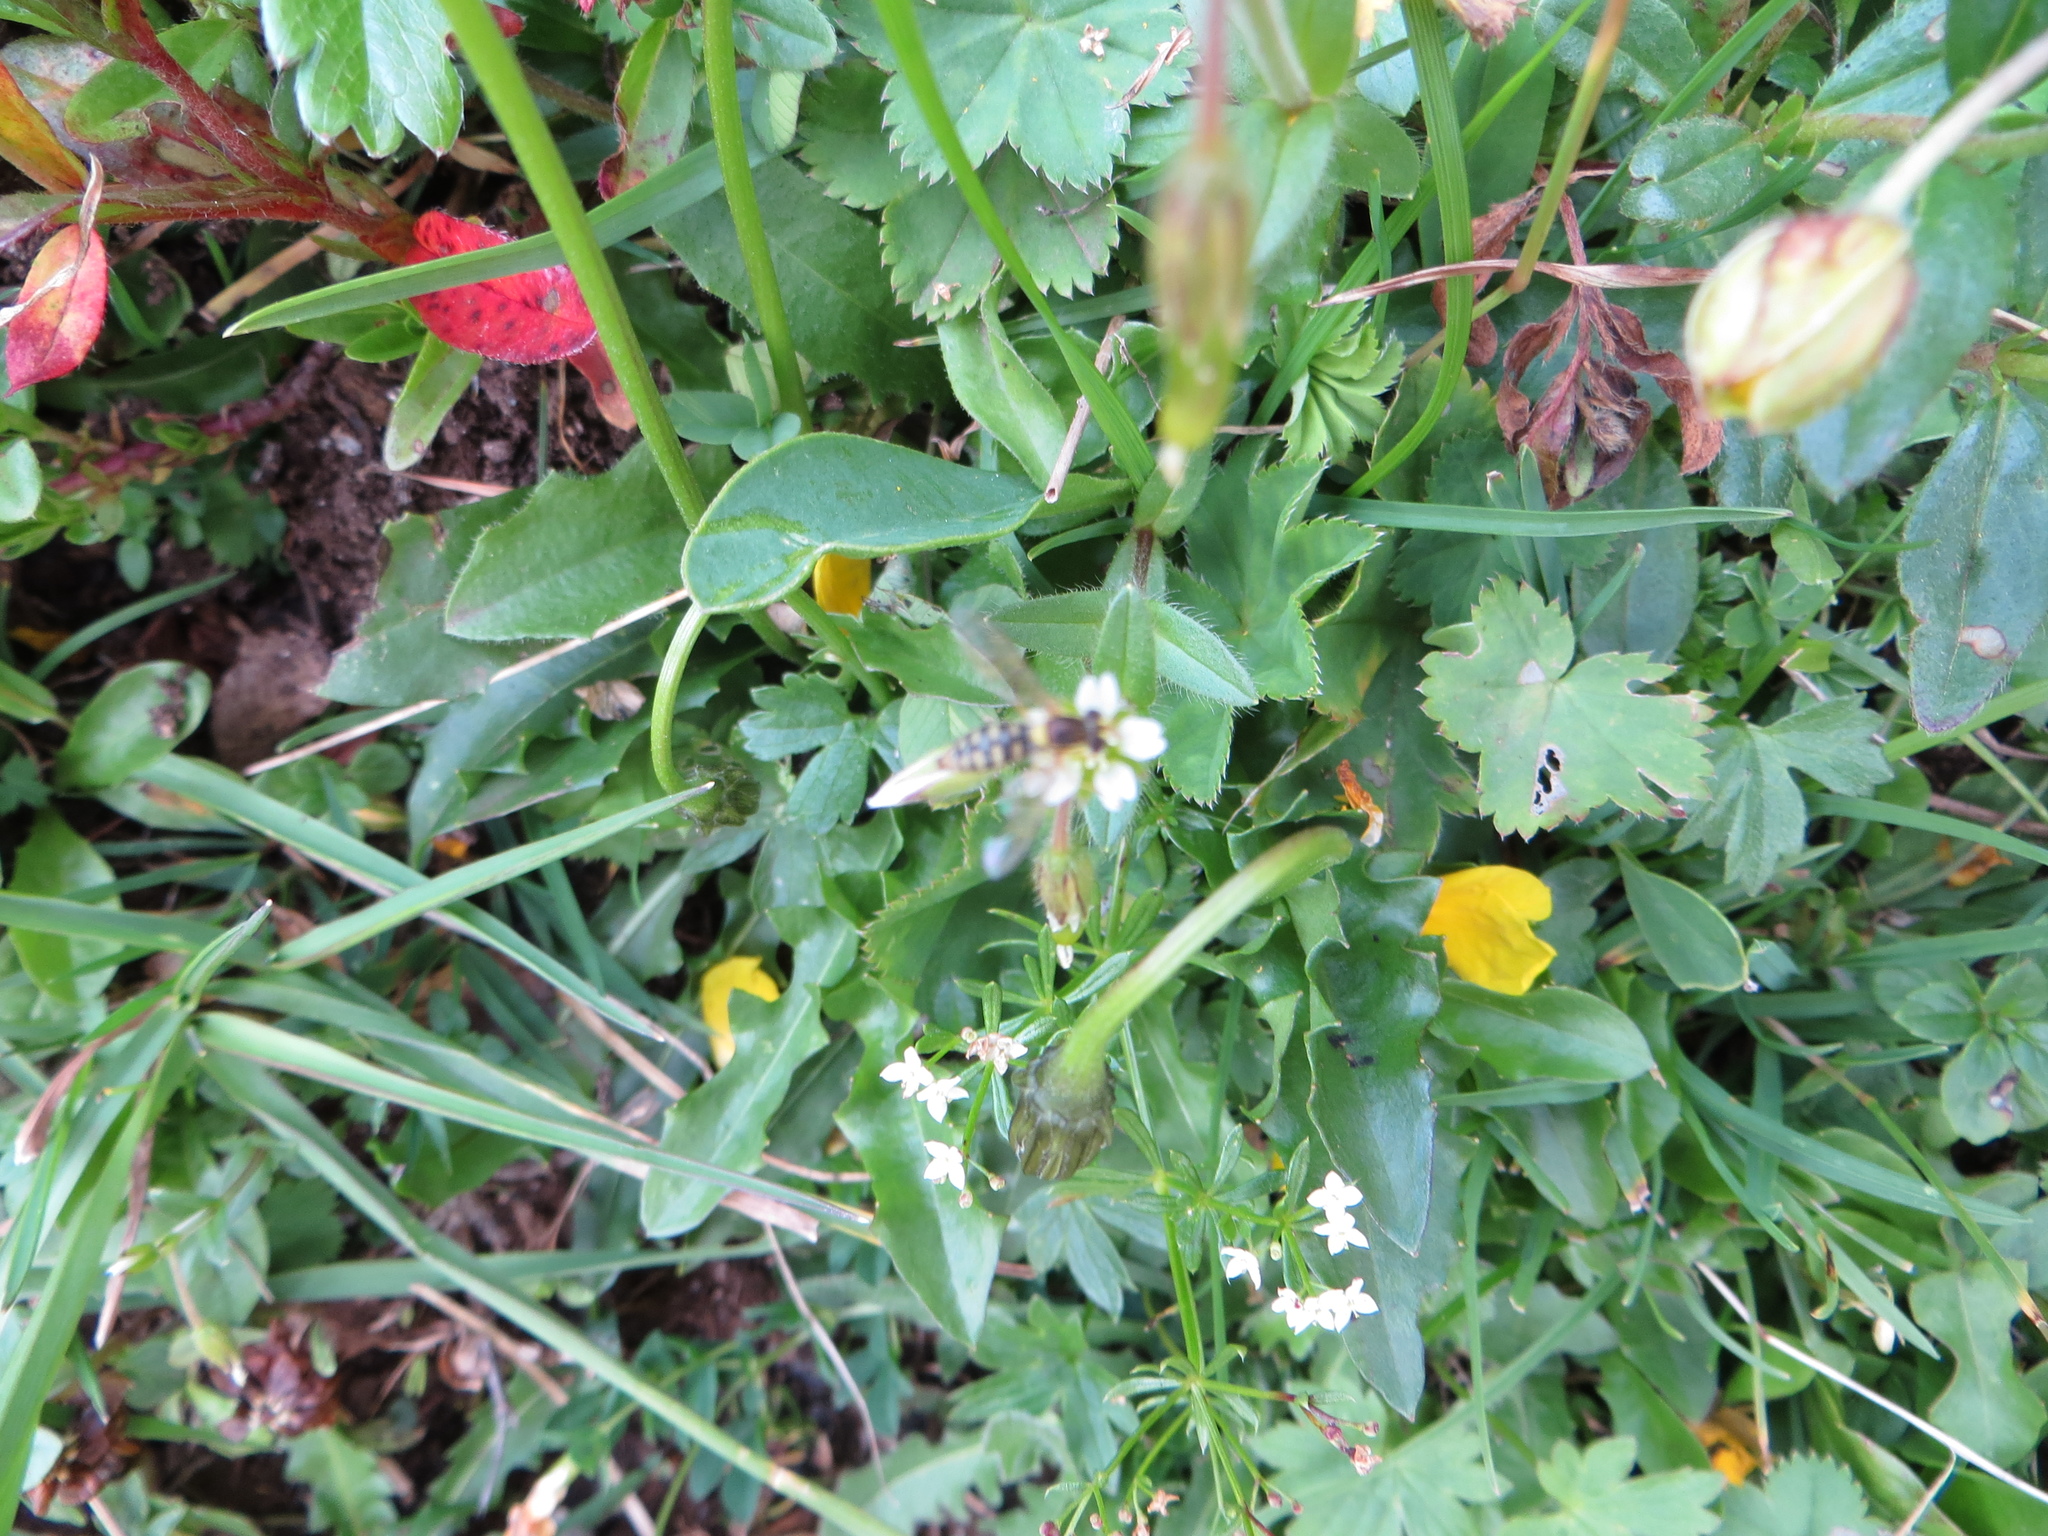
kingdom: Animalia
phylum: Arthropoda
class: Insecta
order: Diptera
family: Syrphidae
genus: Sphaerophoria
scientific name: Sphaerophoria
